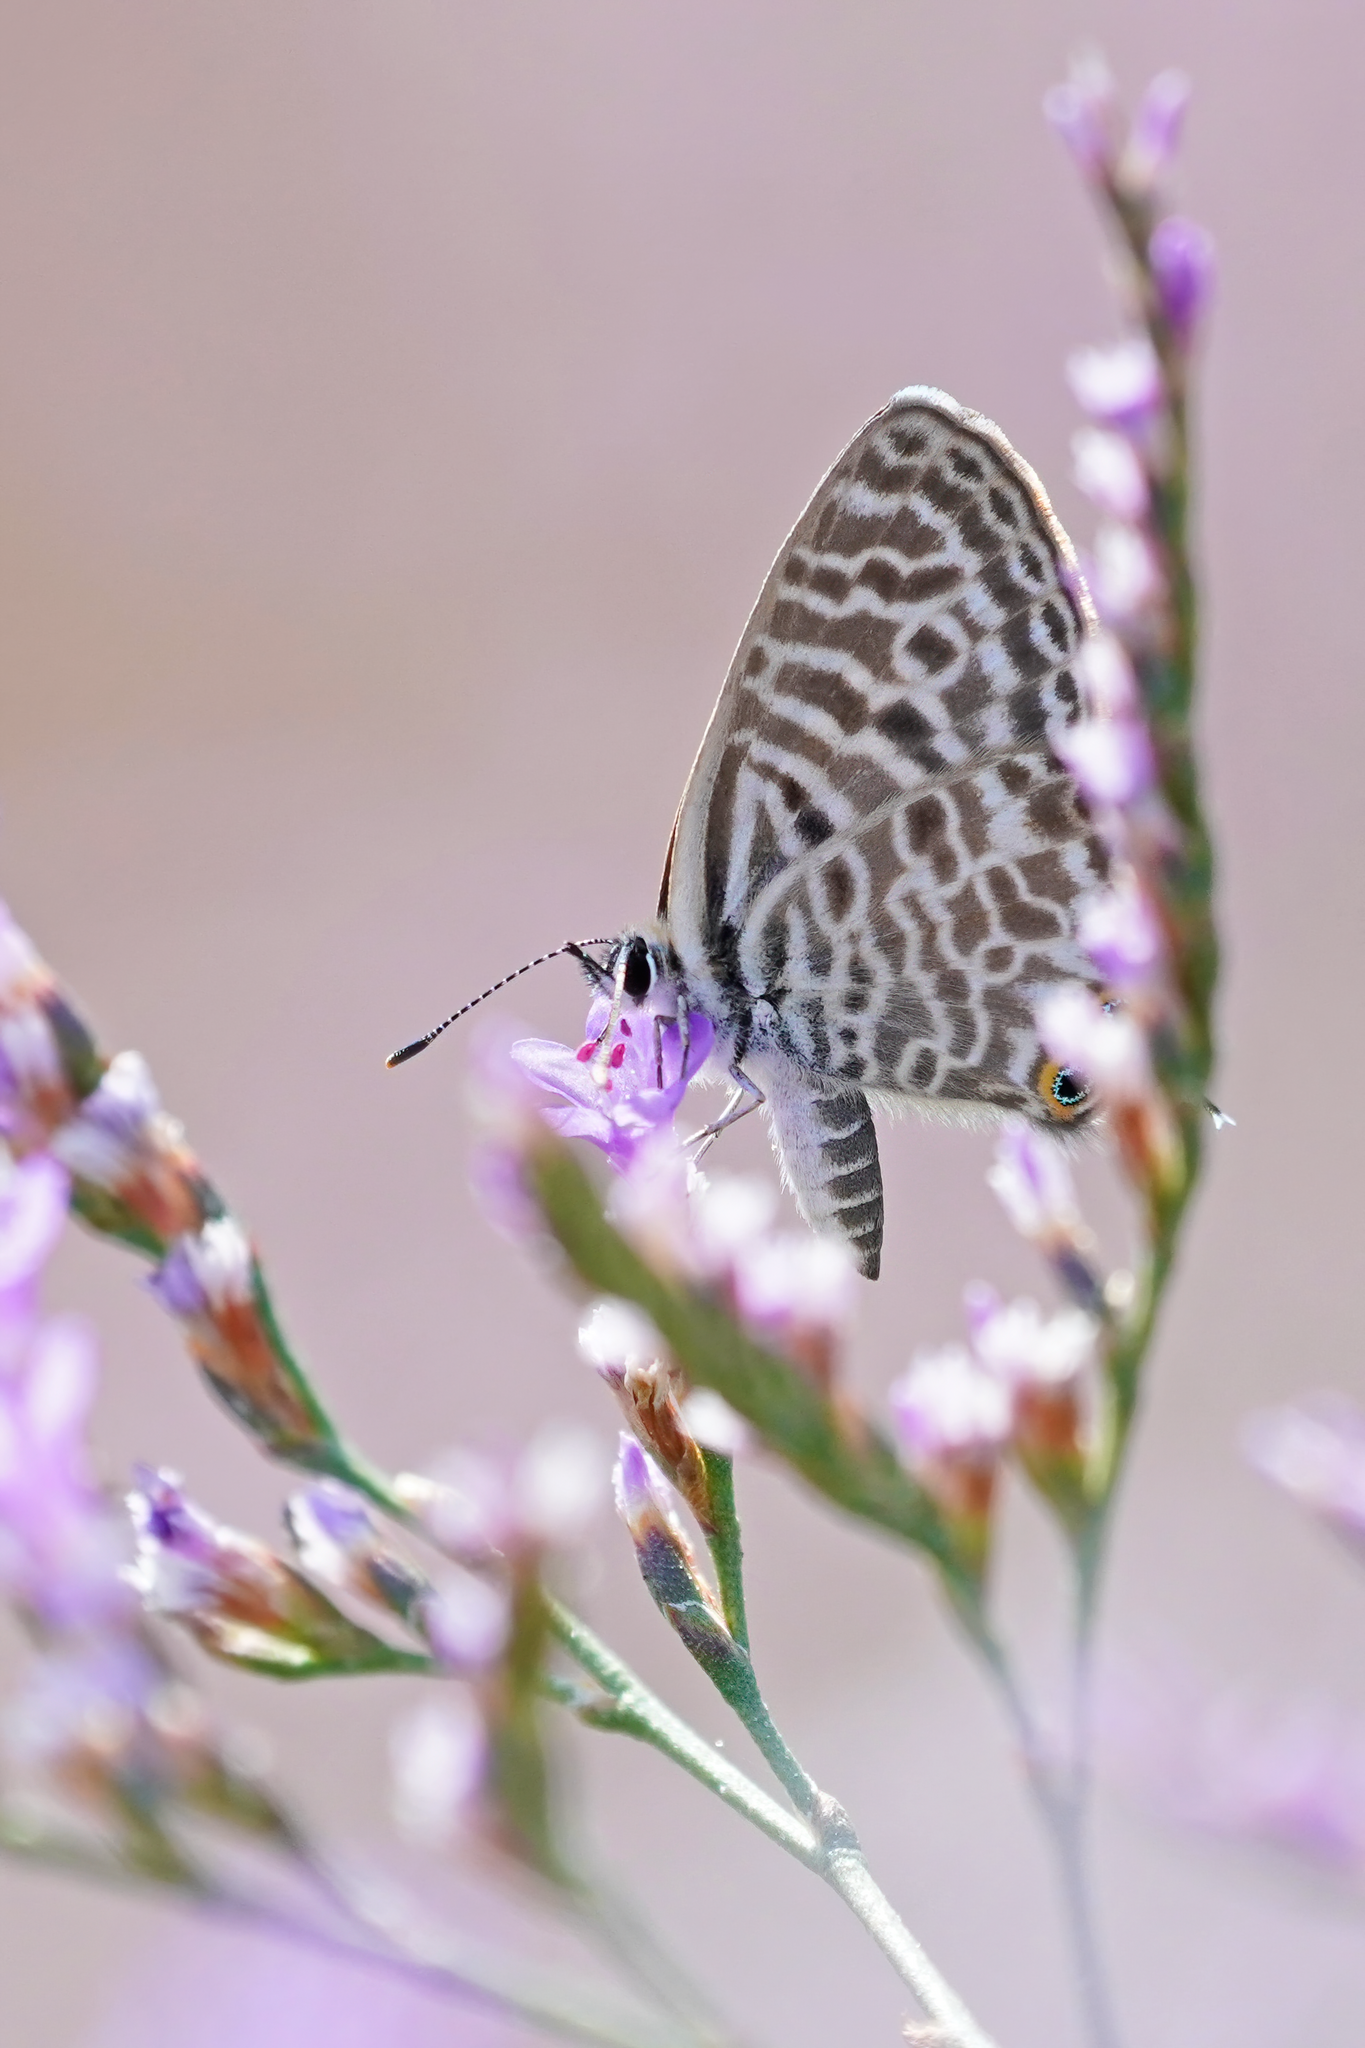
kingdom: Animalia
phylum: Arthropoda
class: Insecta
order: Lepidoptera
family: Lycaenidae
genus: Leptotes
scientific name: Leptotes pirithous
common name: Lang's short-tailed blue
